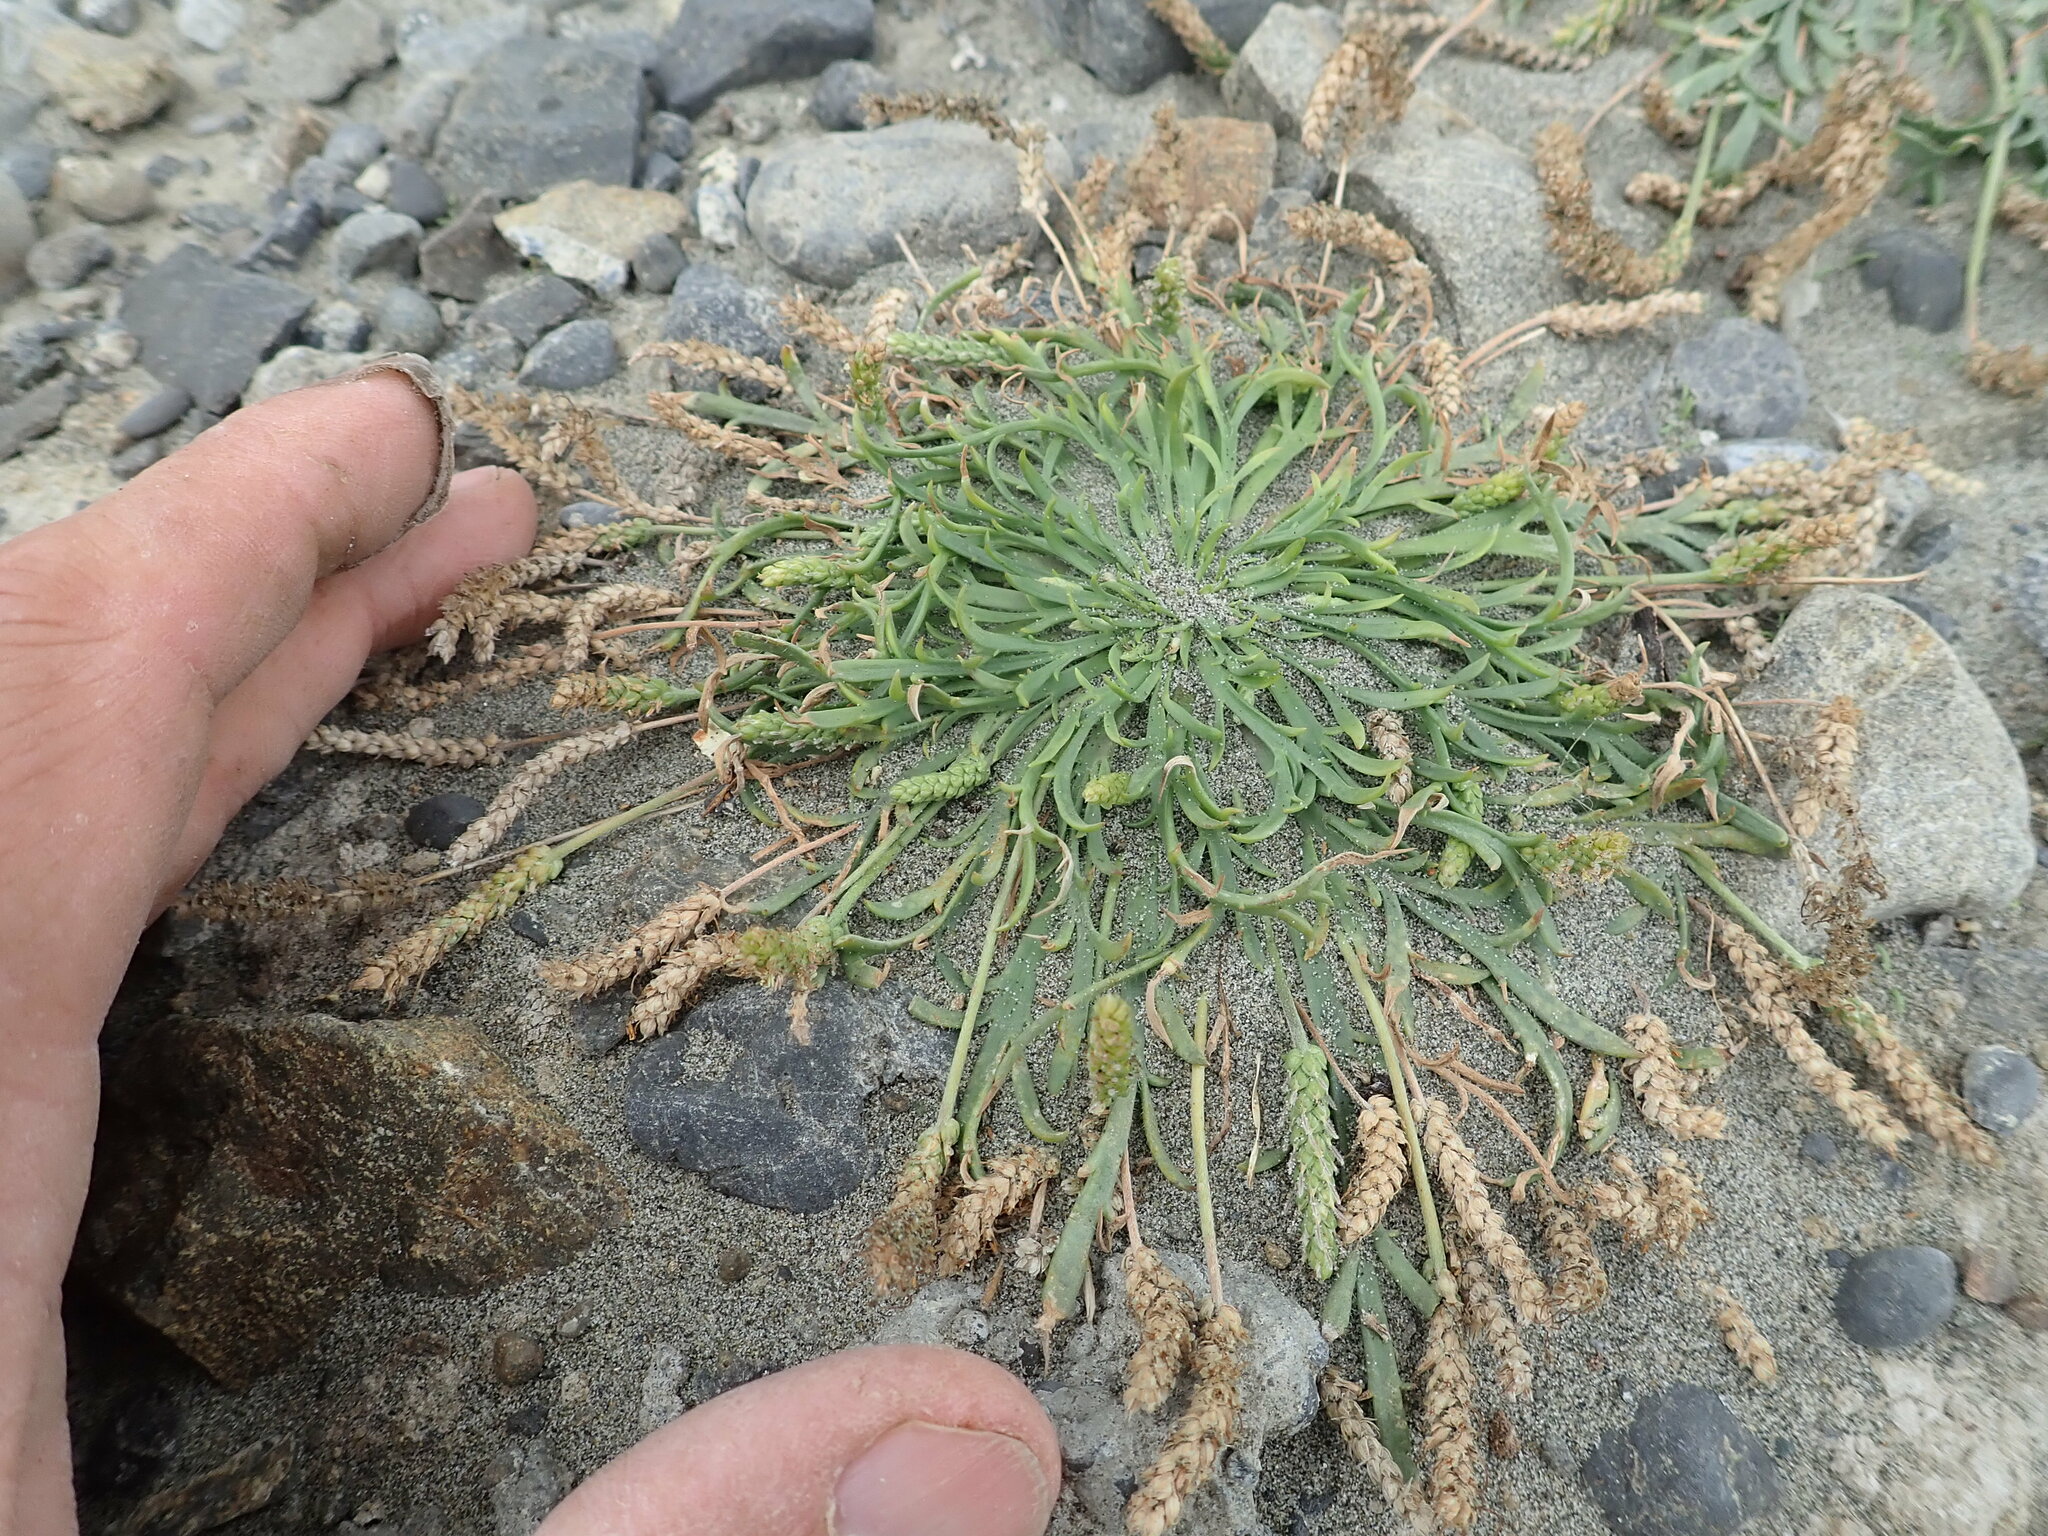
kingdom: Plantae
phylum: Tracheophyta
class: Magnoliopsida
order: Lamiales
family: Plantaginaceae
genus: Plantago
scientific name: Plantago coronopus
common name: Buck's-horn plantain
